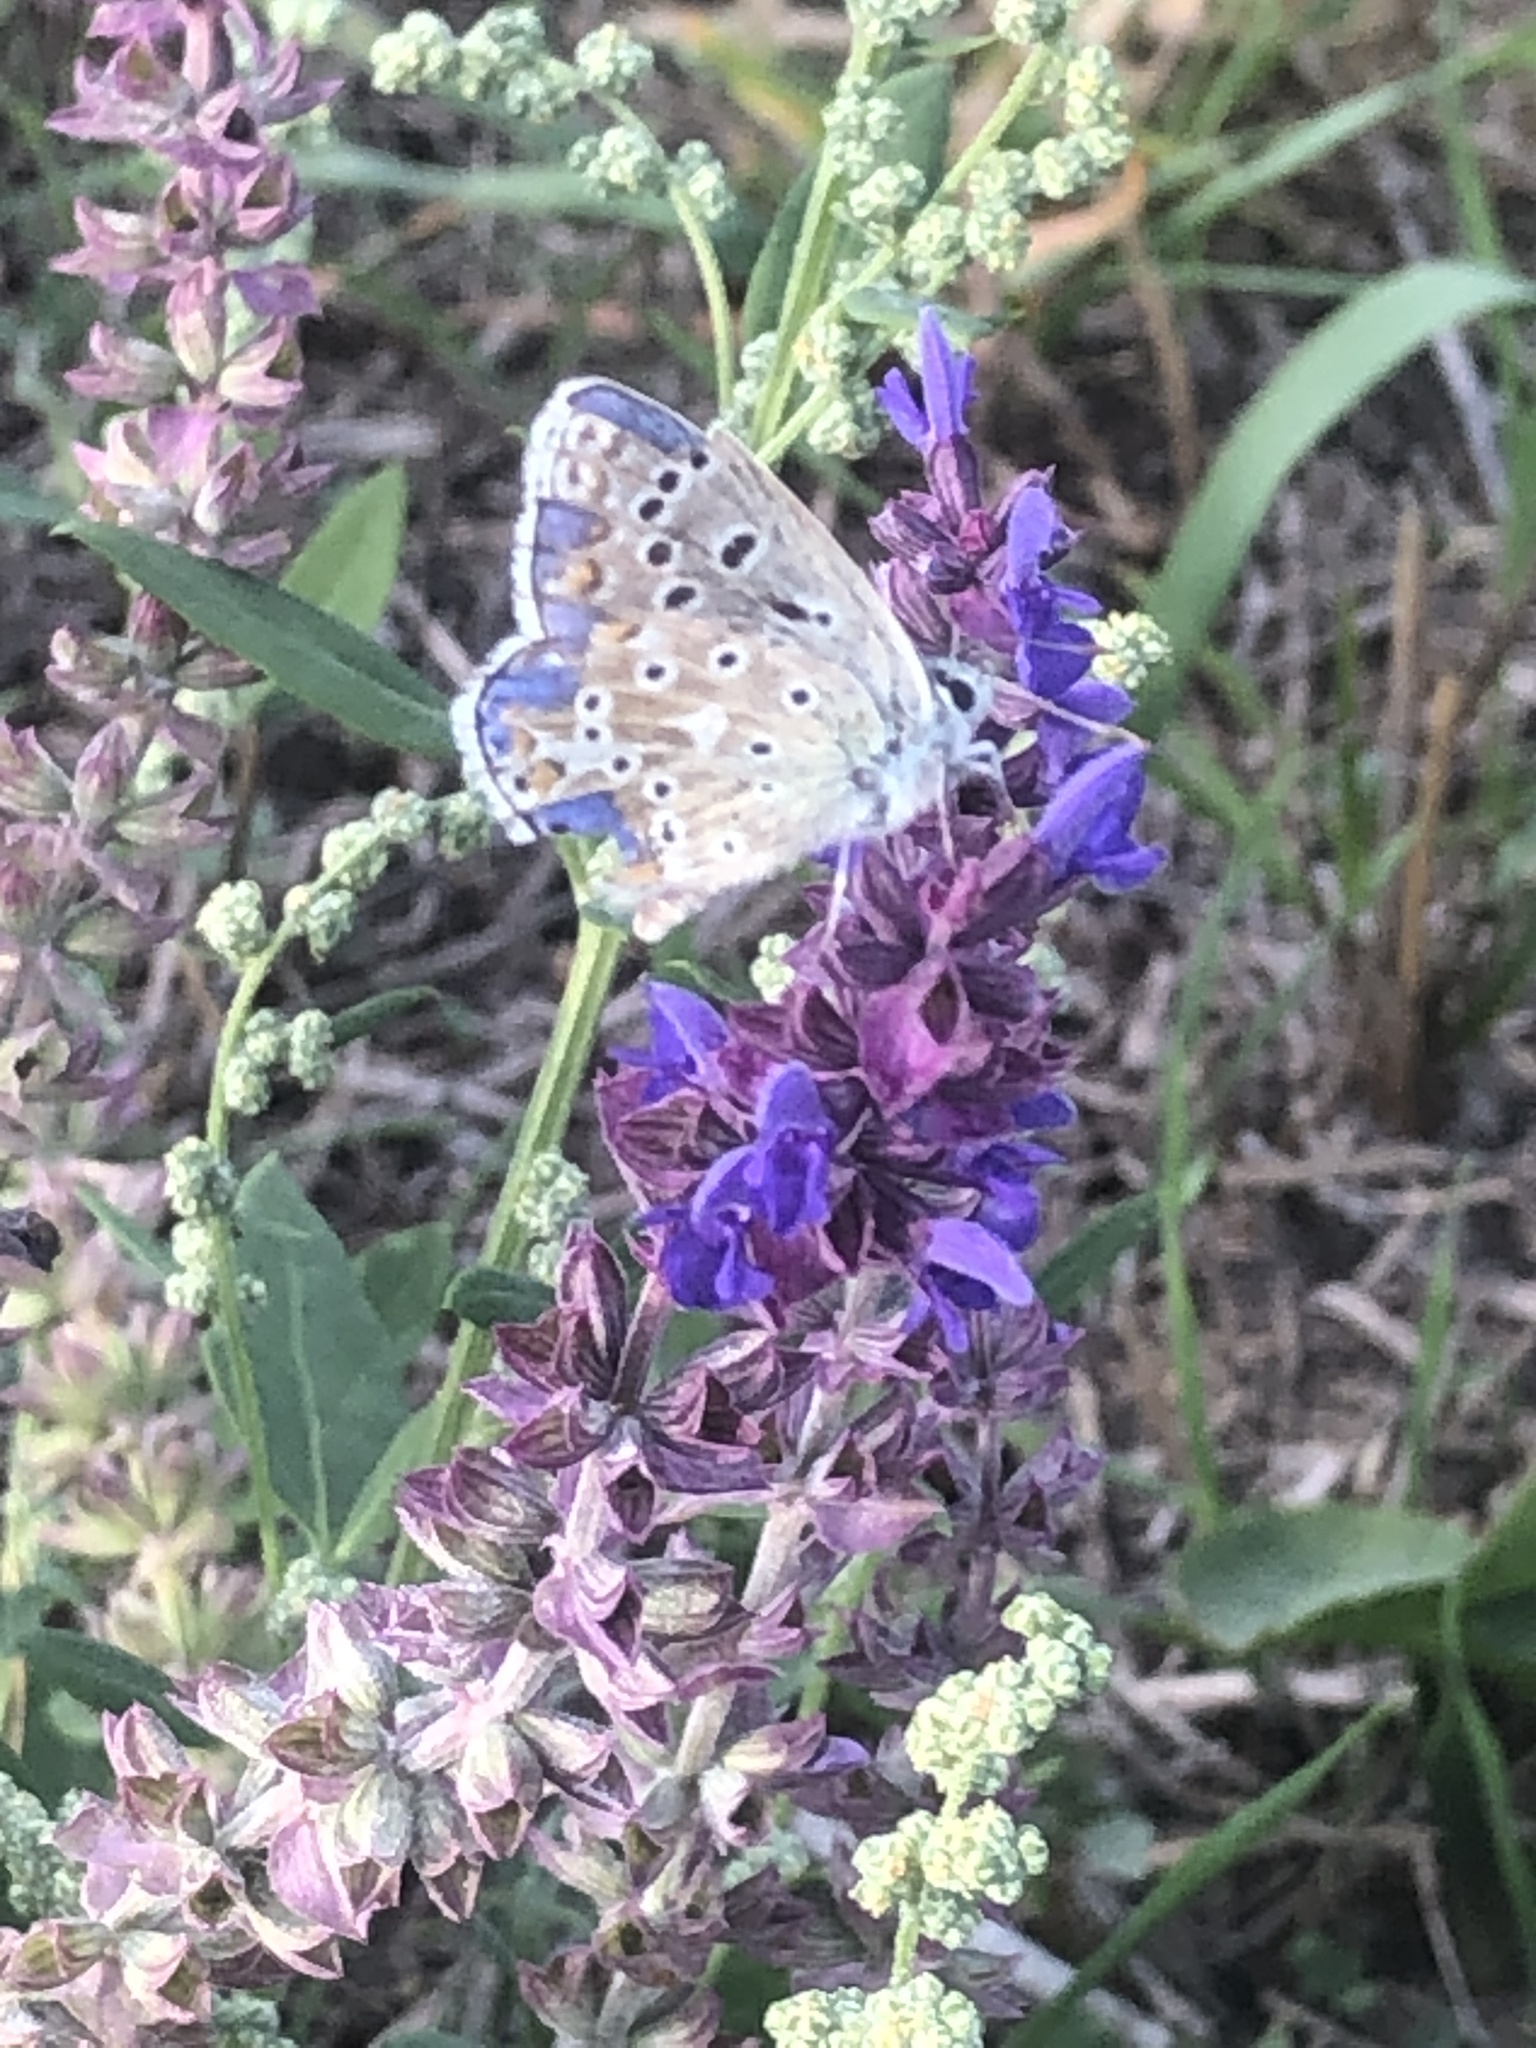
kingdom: Animalia
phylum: Arthropoda
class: Insecta
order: Lepidoptera
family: Lycaenidae
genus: Lysandra
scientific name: Lysandra bellargus
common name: Adonis blue
